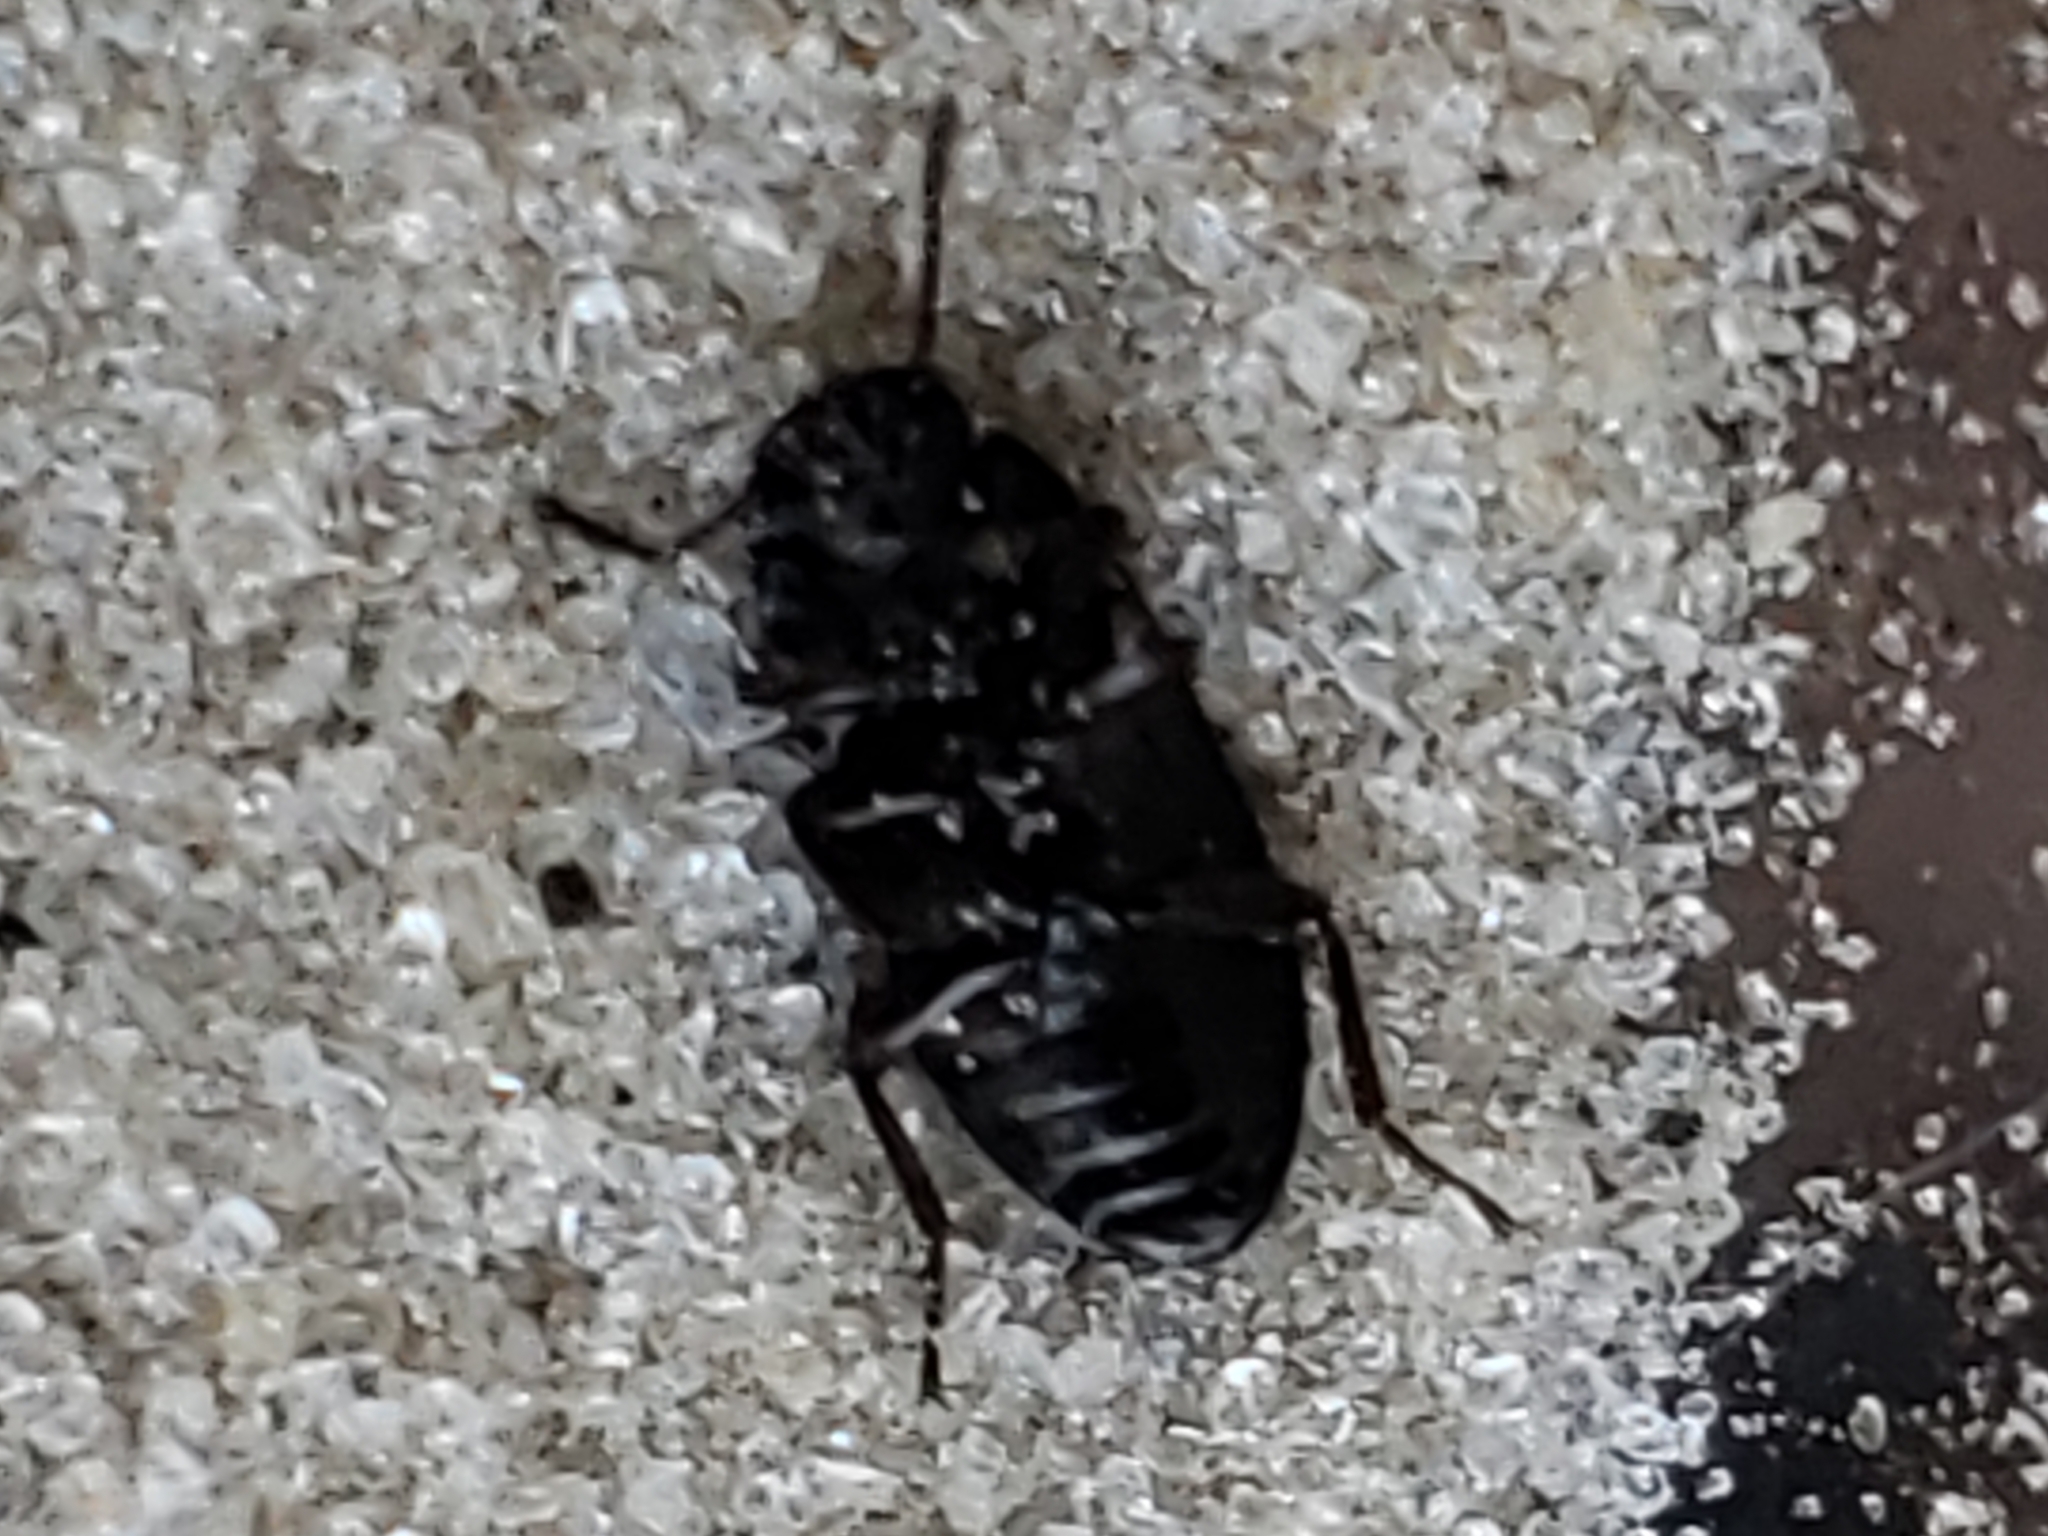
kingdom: Animalia
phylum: Arthropoda
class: Insecta
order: Coleoptera
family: Tenebrionidae
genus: Blapstinus
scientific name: Blapstinus metallicus
